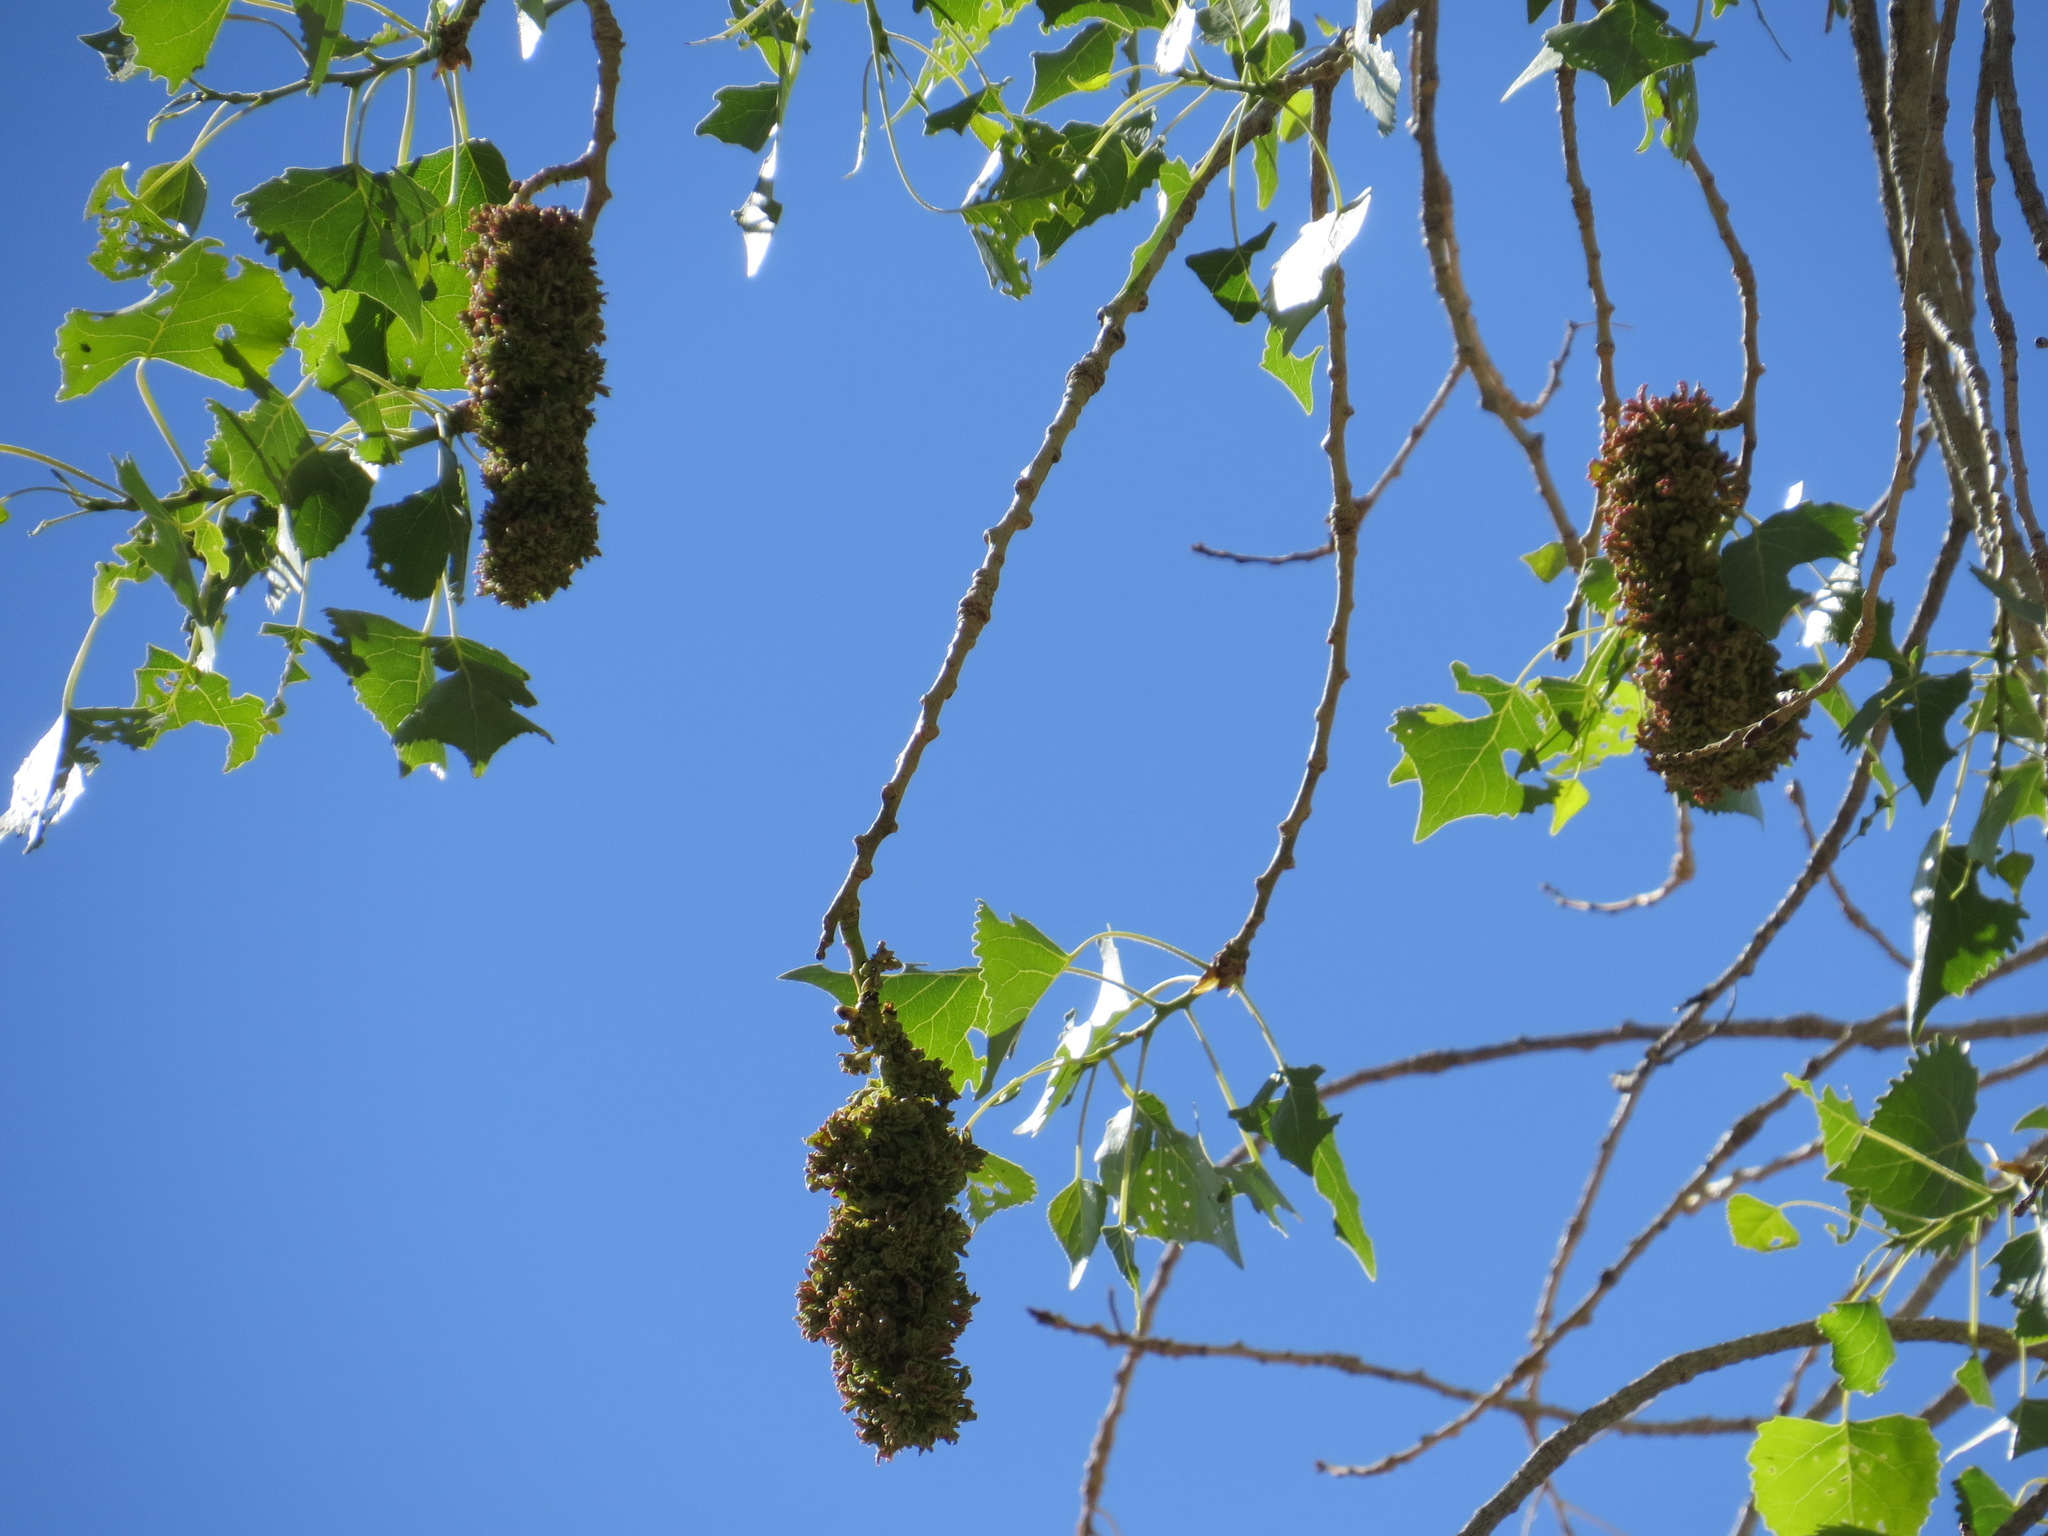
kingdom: Animalia
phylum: Arthropoda
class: Arachnida
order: Trombidiformes
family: Eriophyidae
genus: Eriophyes
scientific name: Eriophyes
